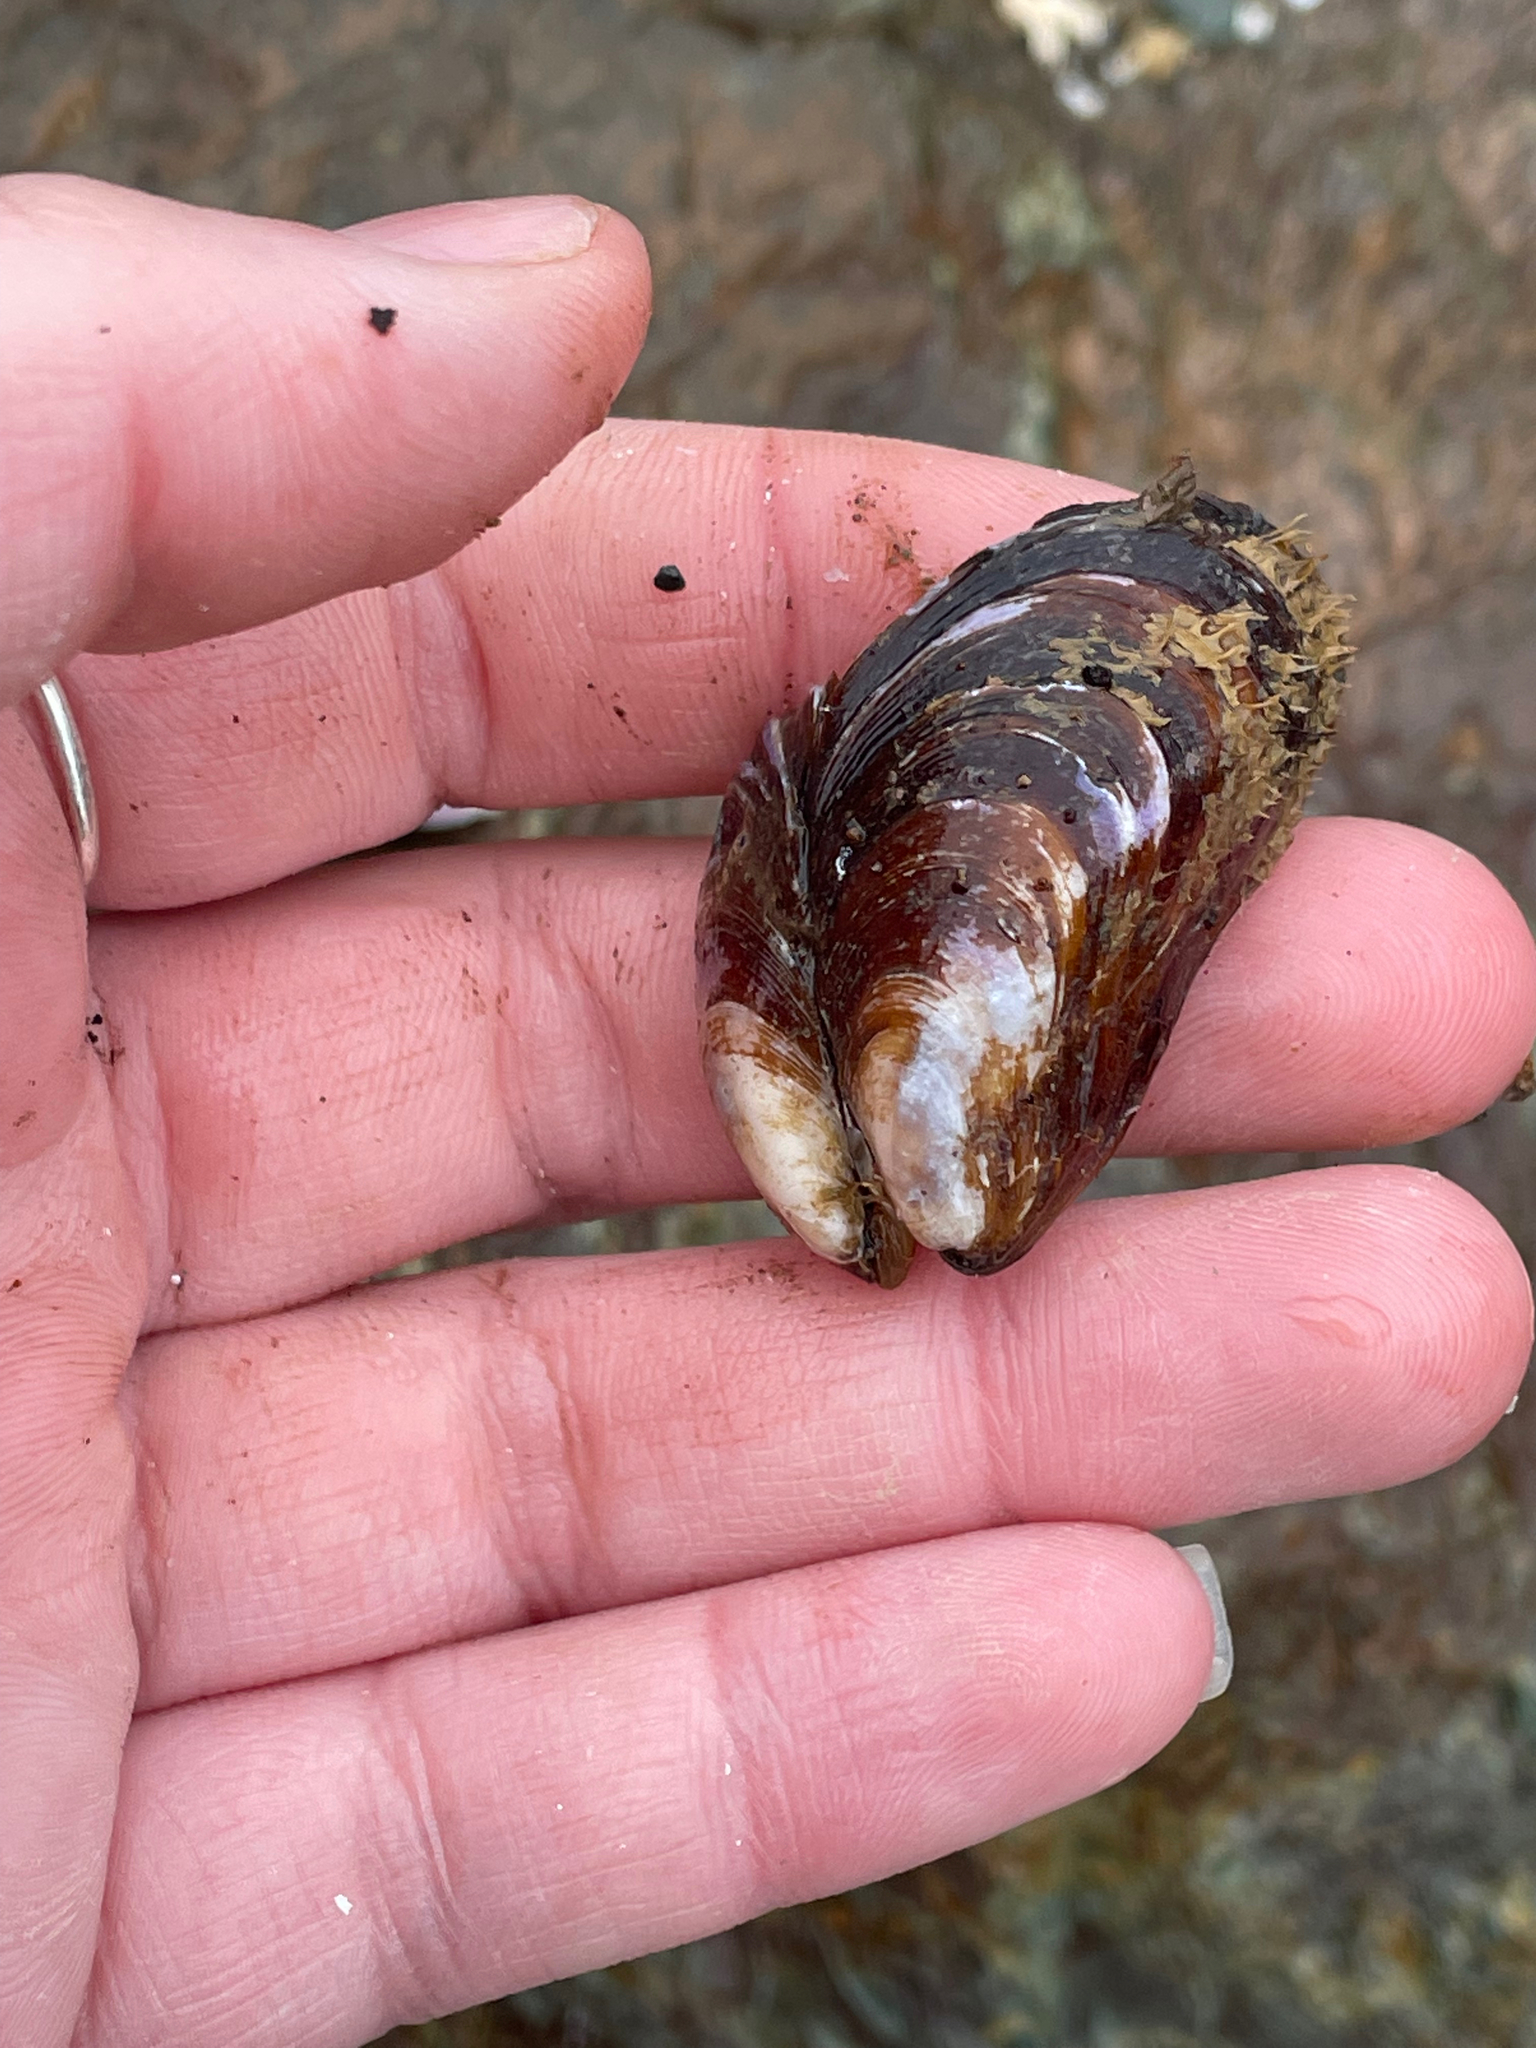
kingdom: Animalia
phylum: Mollusca
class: Bivalvia
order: Mytilida
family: Mytilidae
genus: Modiolus
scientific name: Modiolus modiolus
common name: Horse-mussel
